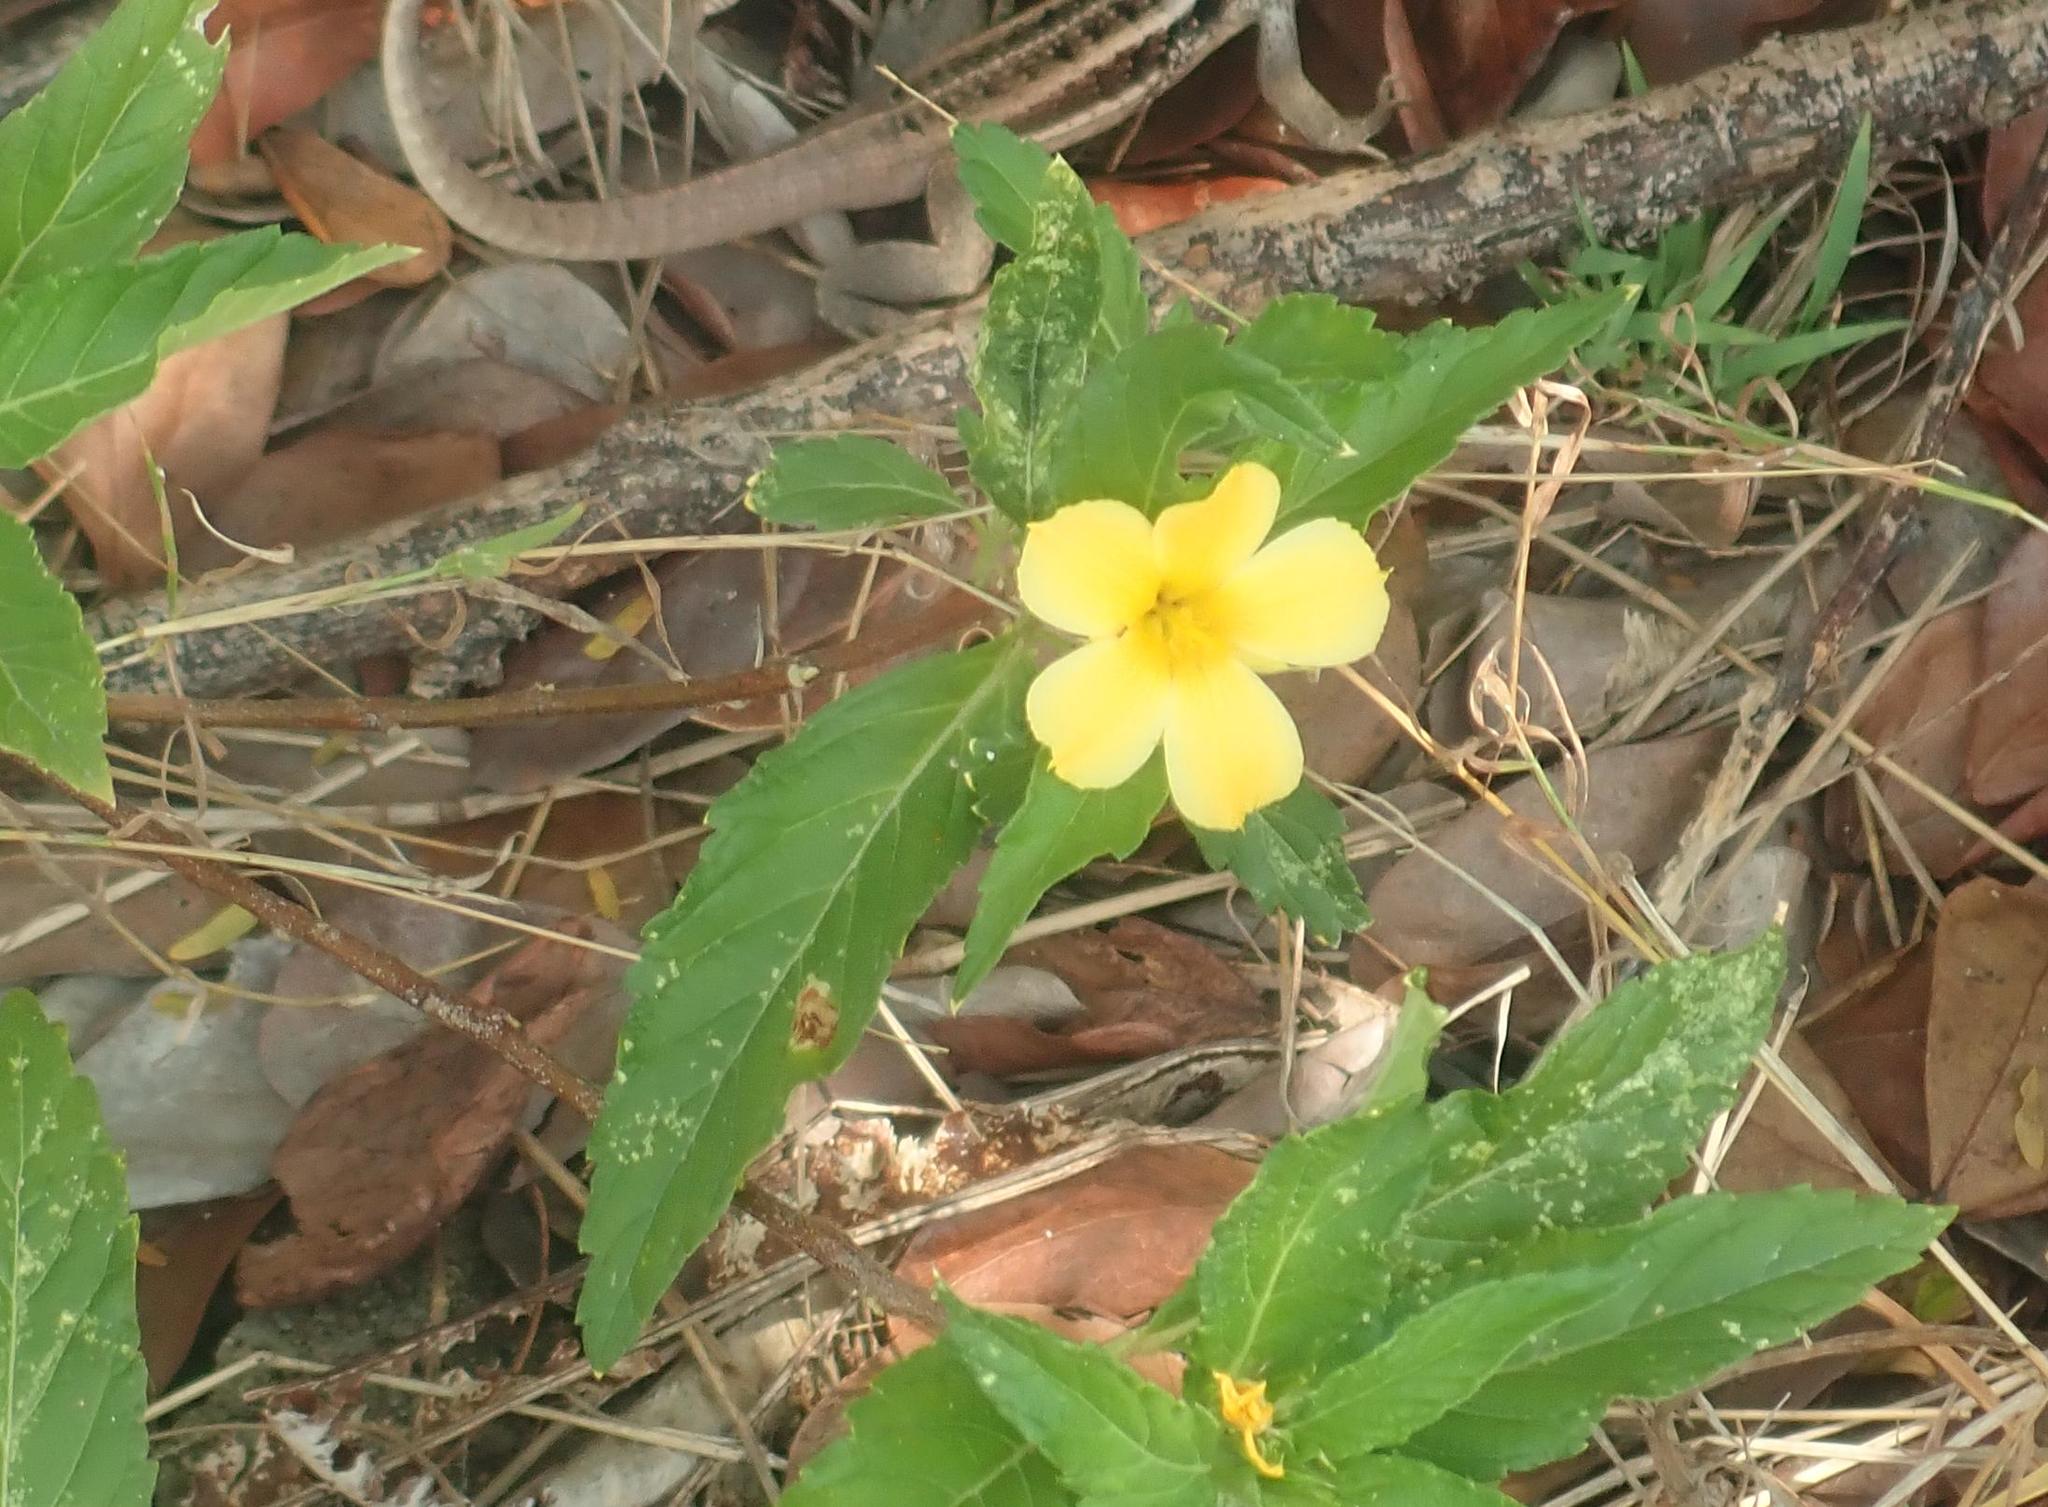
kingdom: Plantae
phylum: Tracheophyta
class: Magnoliopsida
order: Malpighiales
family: Turneraceae
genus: Turnera
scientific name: Turnera ulmifolia
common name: Ramgoat dashalong
